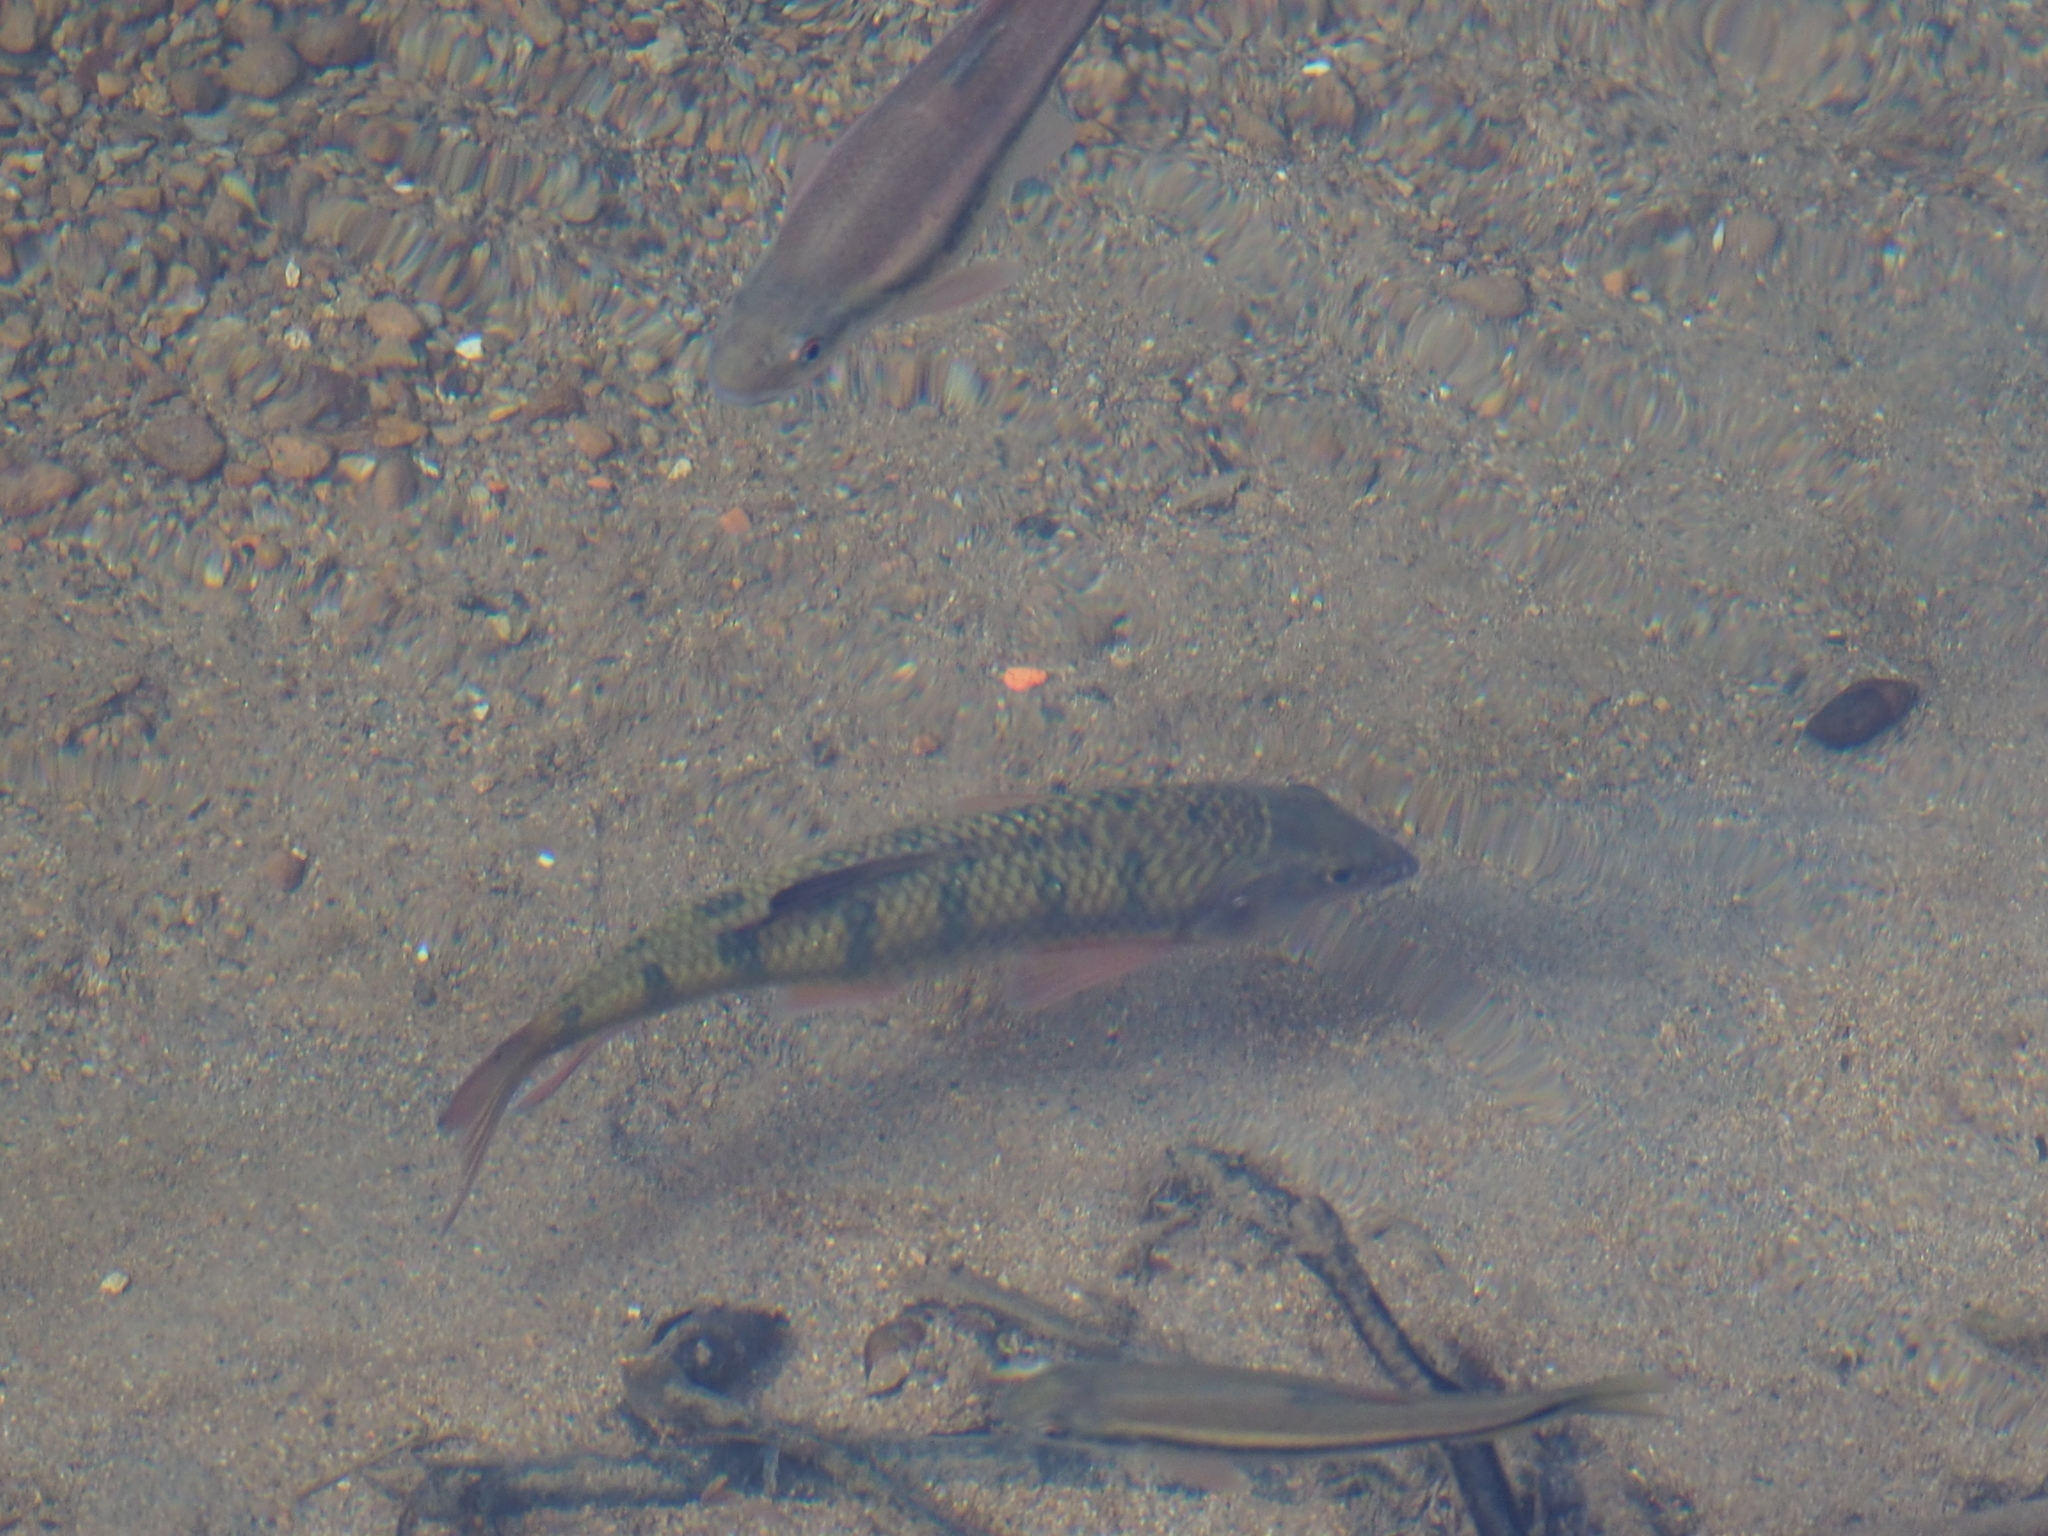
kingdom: Animalia
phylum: Chordata
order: Cypriniformes
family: Cyprinidae
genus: Acrossocheilus
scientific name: Acrossocheilus paradoxus
